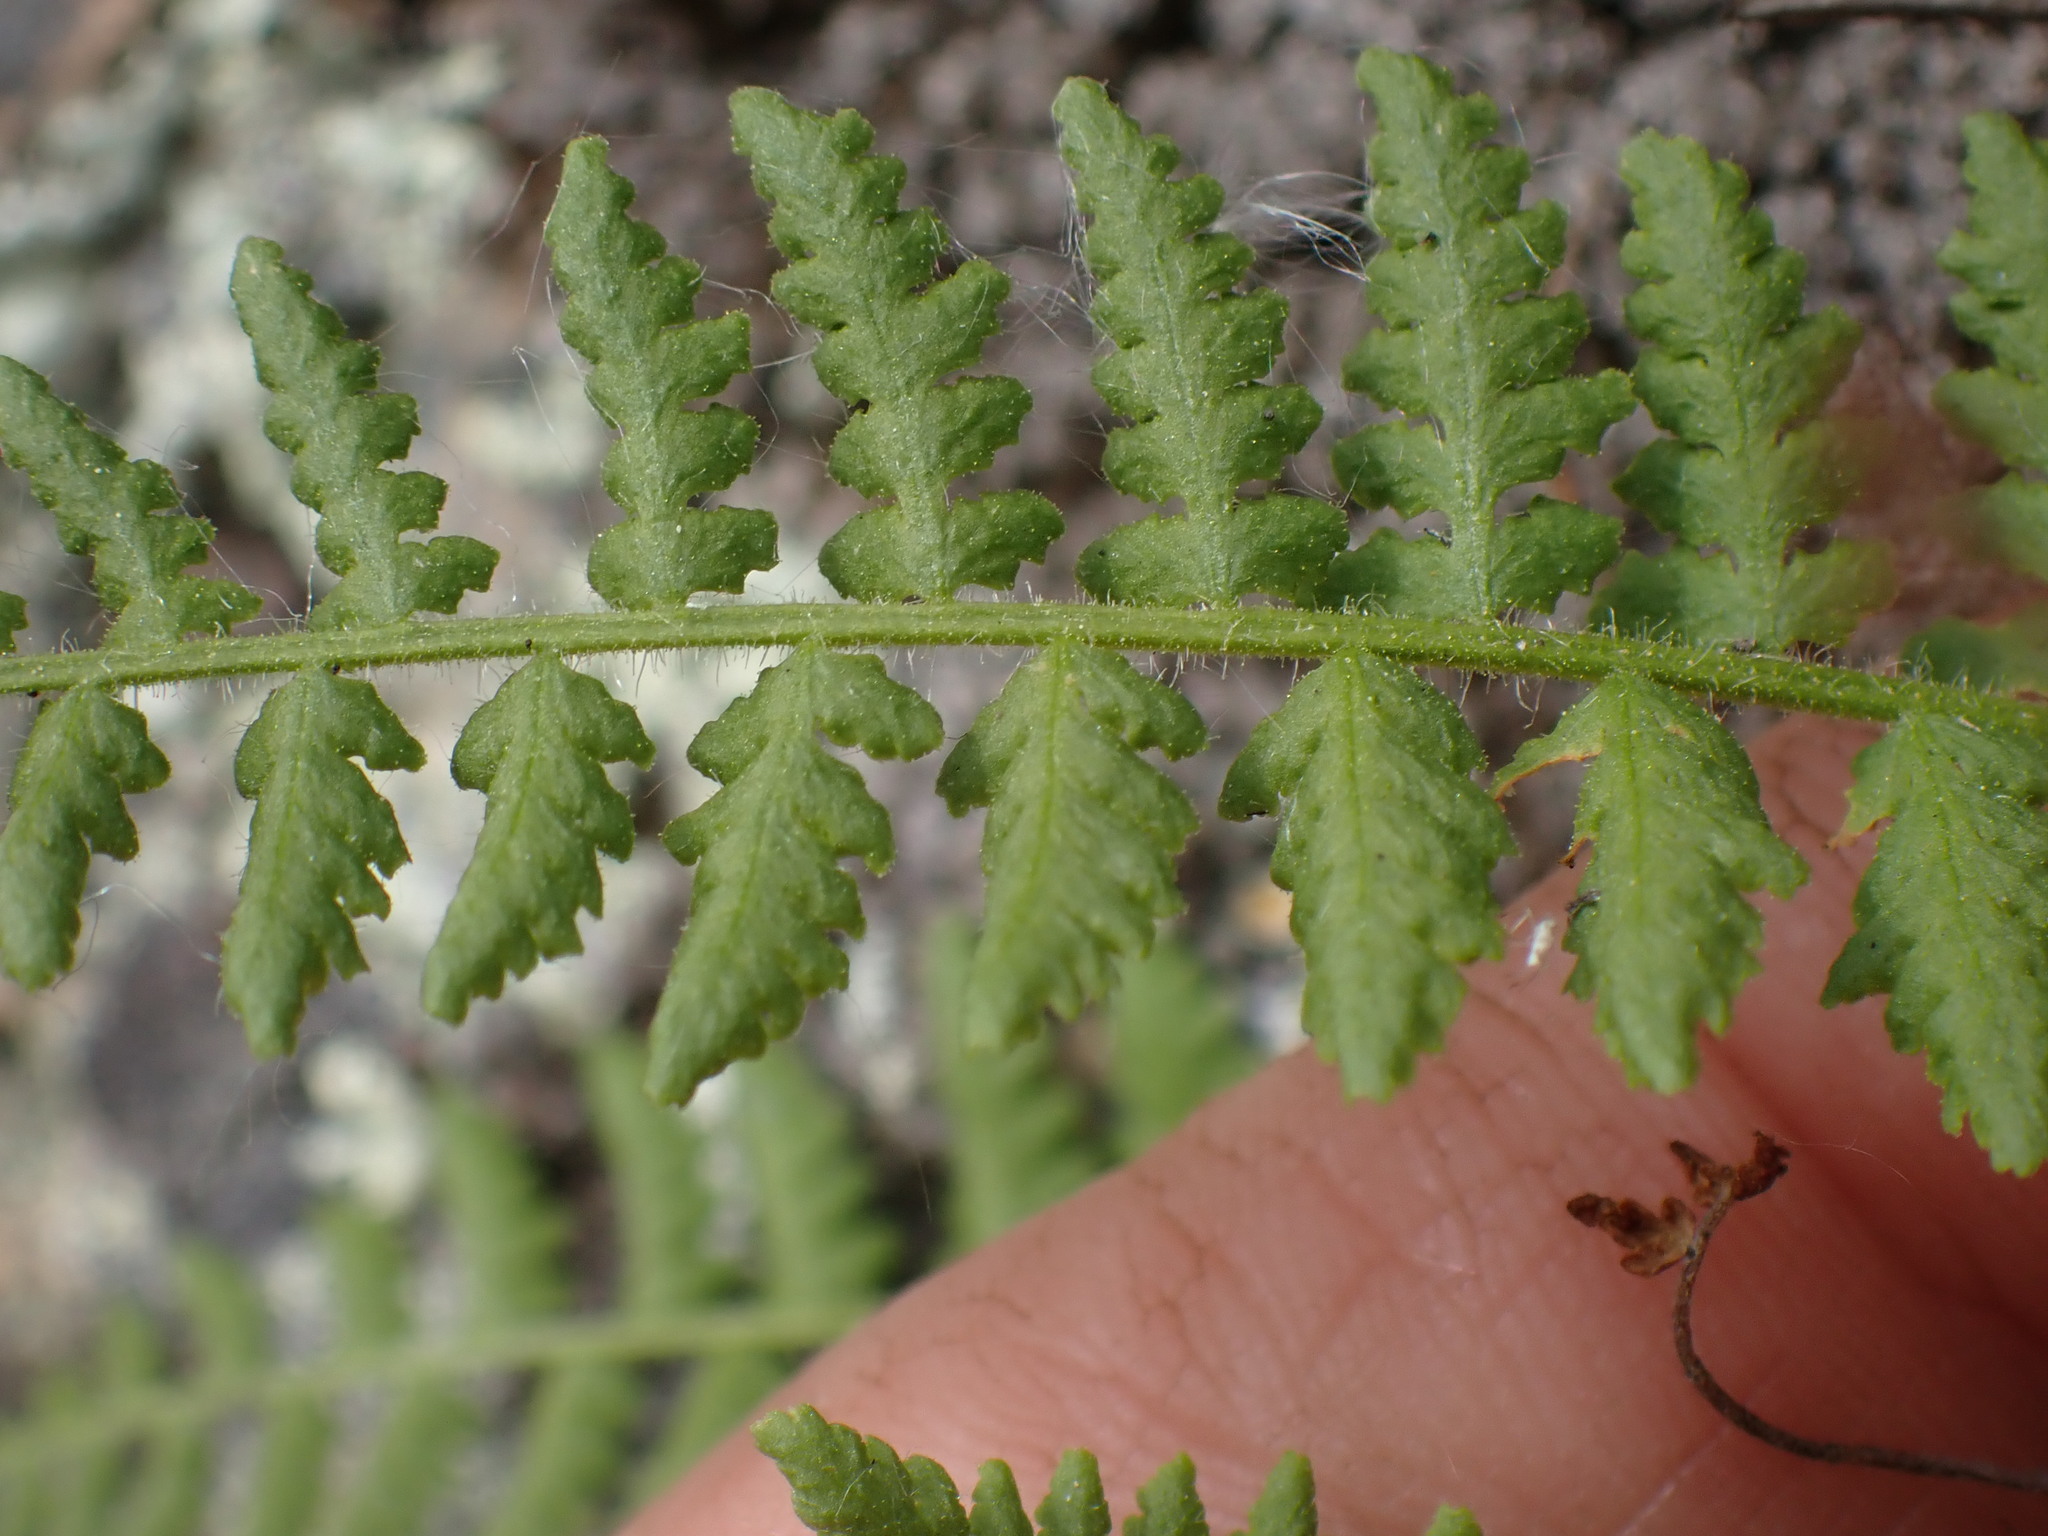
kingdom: Plantae
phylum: Tracheophyta
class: Polypodiopsida
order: Polypodiales
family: Woodsiaceae
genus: Physematium
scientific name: Physematium scopulinum
